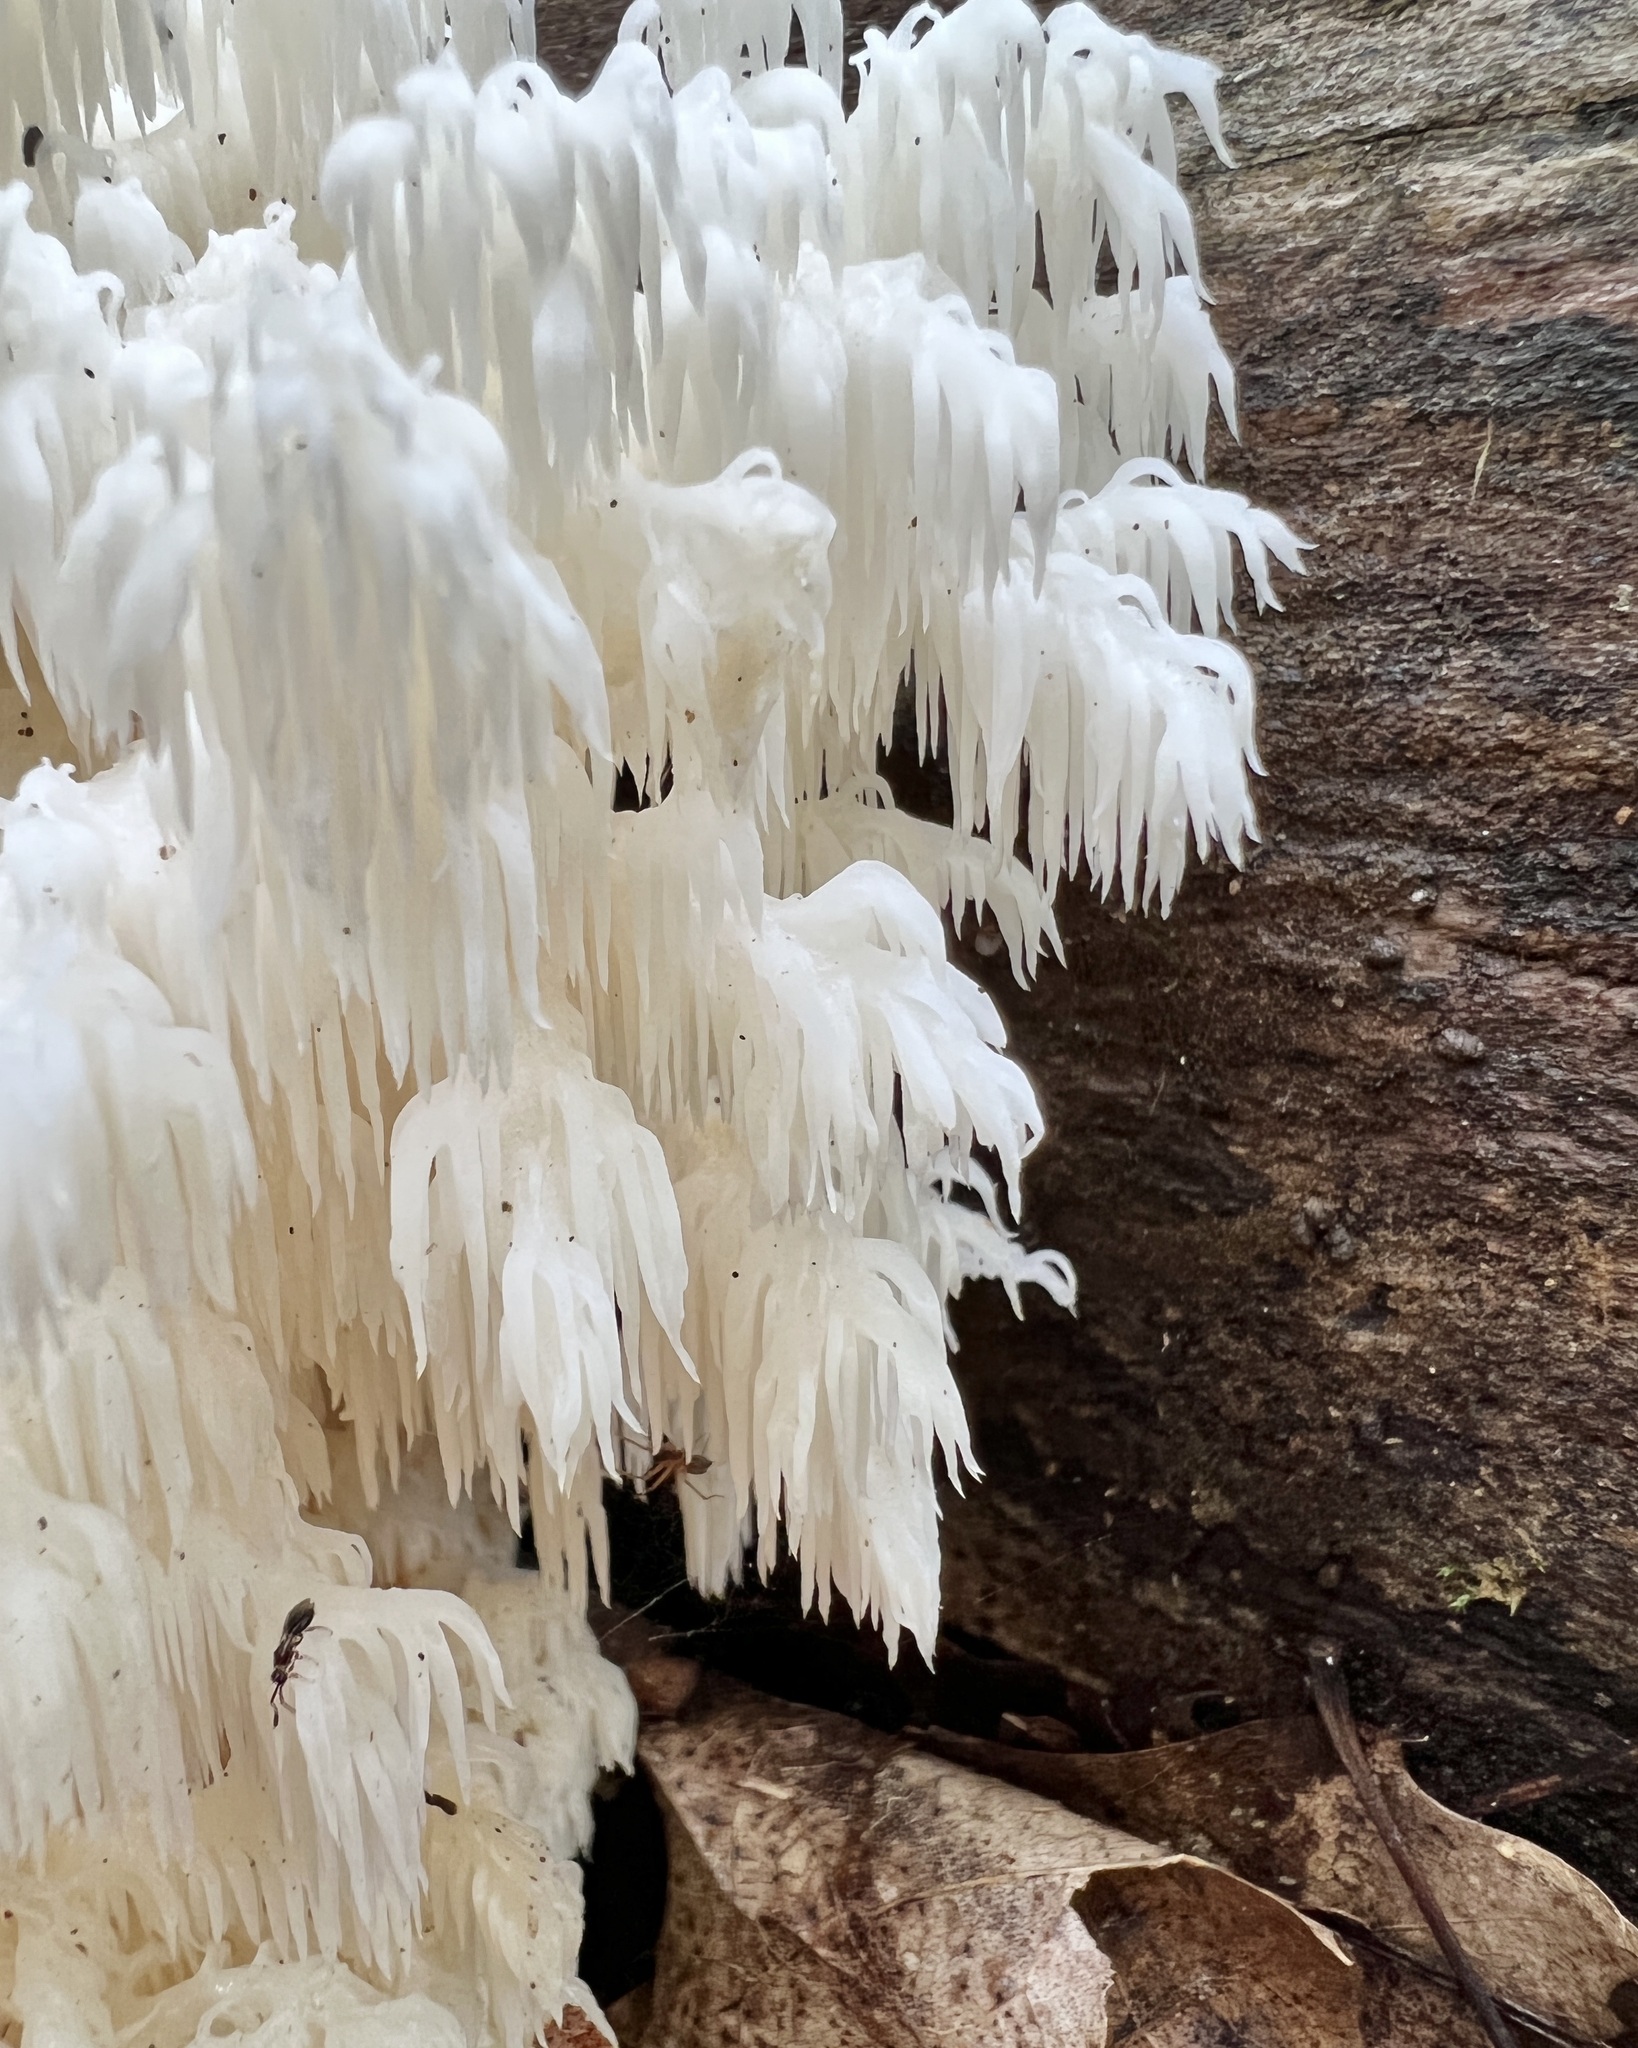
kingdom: Fungi
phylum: Basidiomycota
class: Agaricomycetes
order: Russulales
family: Hericiaceae
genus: Hericium
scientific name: Hericium coralloides
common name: Coral tooth
